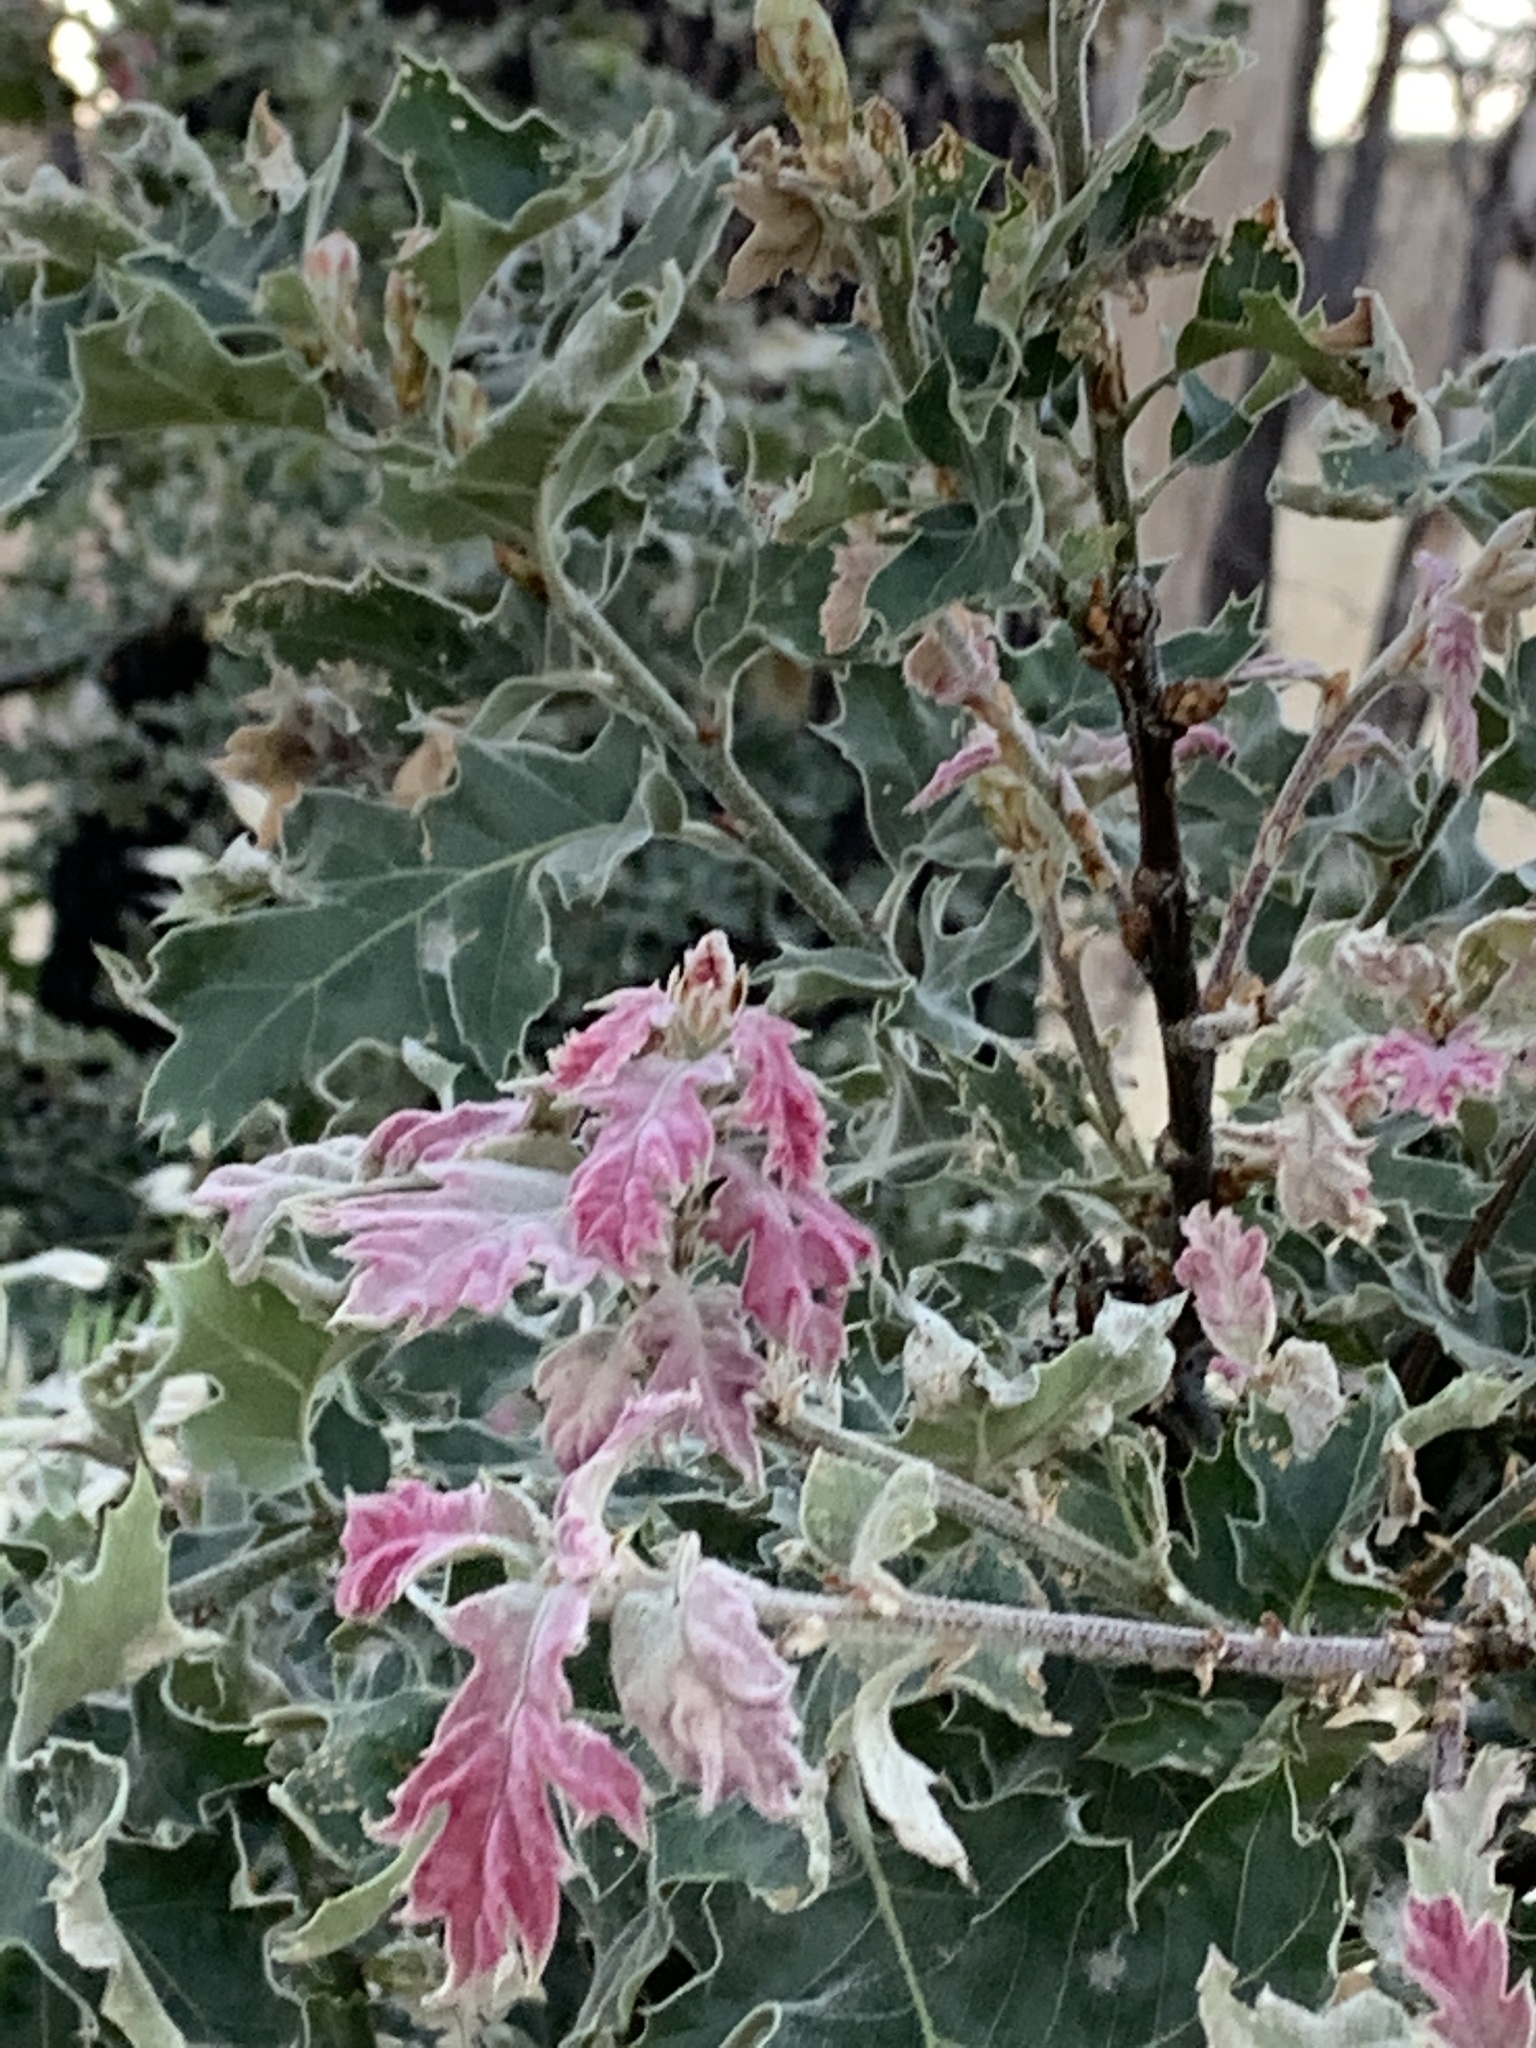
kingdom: Plantae
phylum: Tracheophyta
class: Magnoliopsida
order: Fagales
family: Fagaceae
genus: Quercus
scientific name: Quercus kelloggii
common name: California black oak
